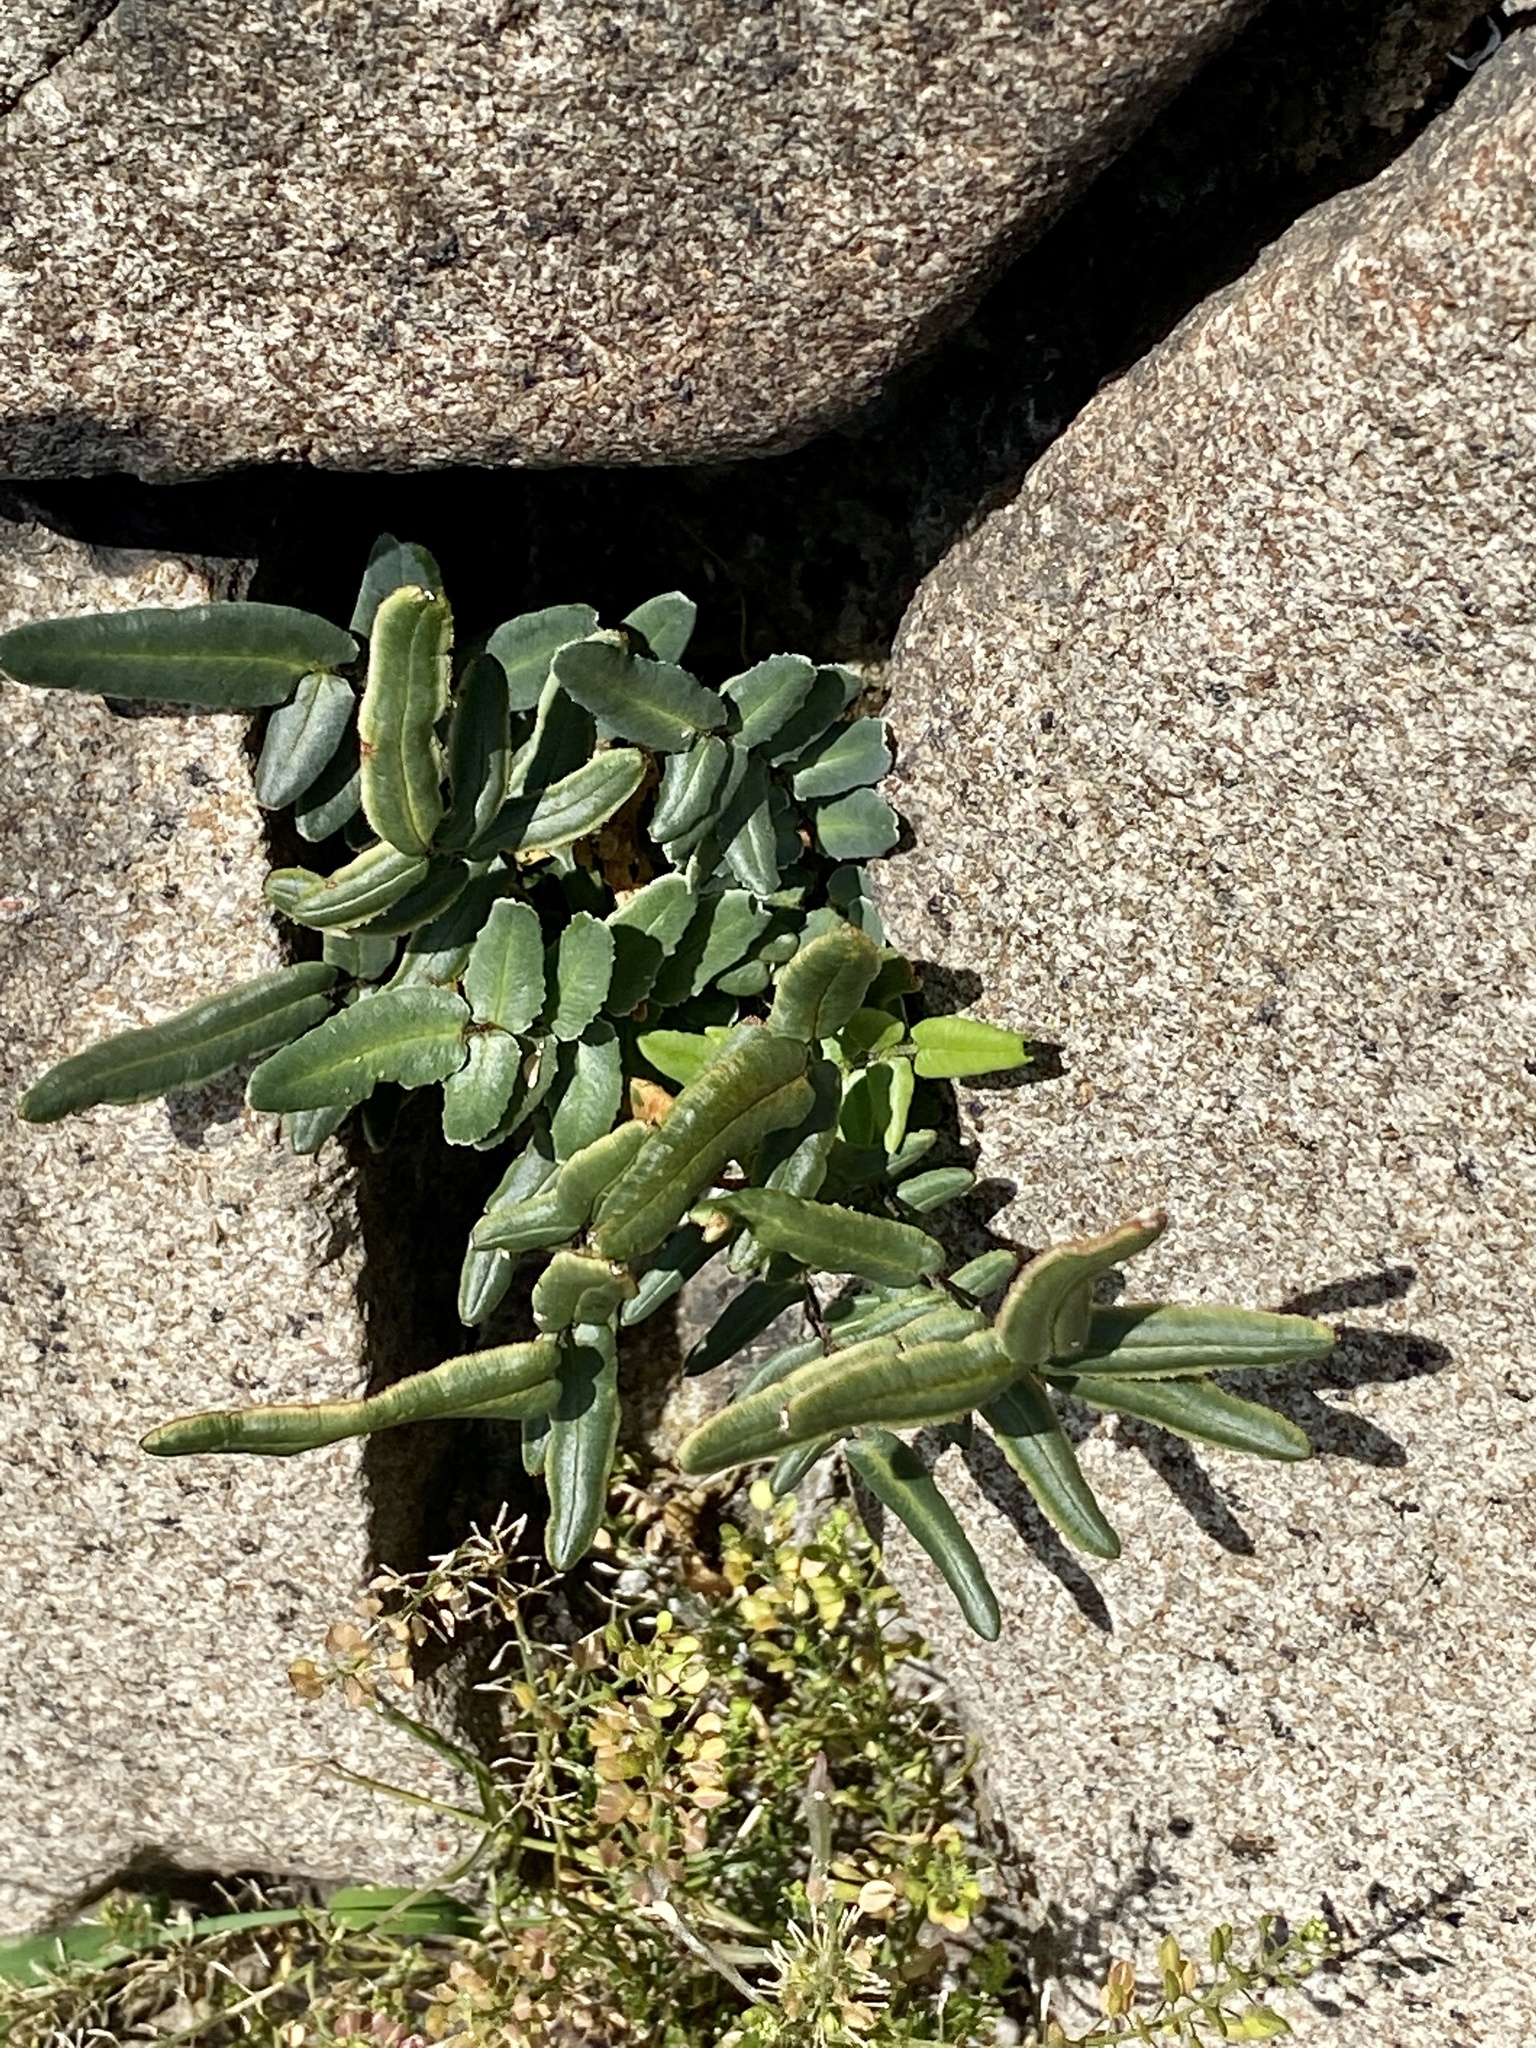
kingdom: Plantae
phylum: Tracheophyta
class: Polypodiopsida
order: Polypodiales
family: Pteridaceae
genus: Pellaea
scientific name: Pellaea atropurpurea
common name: Hairy cliffbrake
